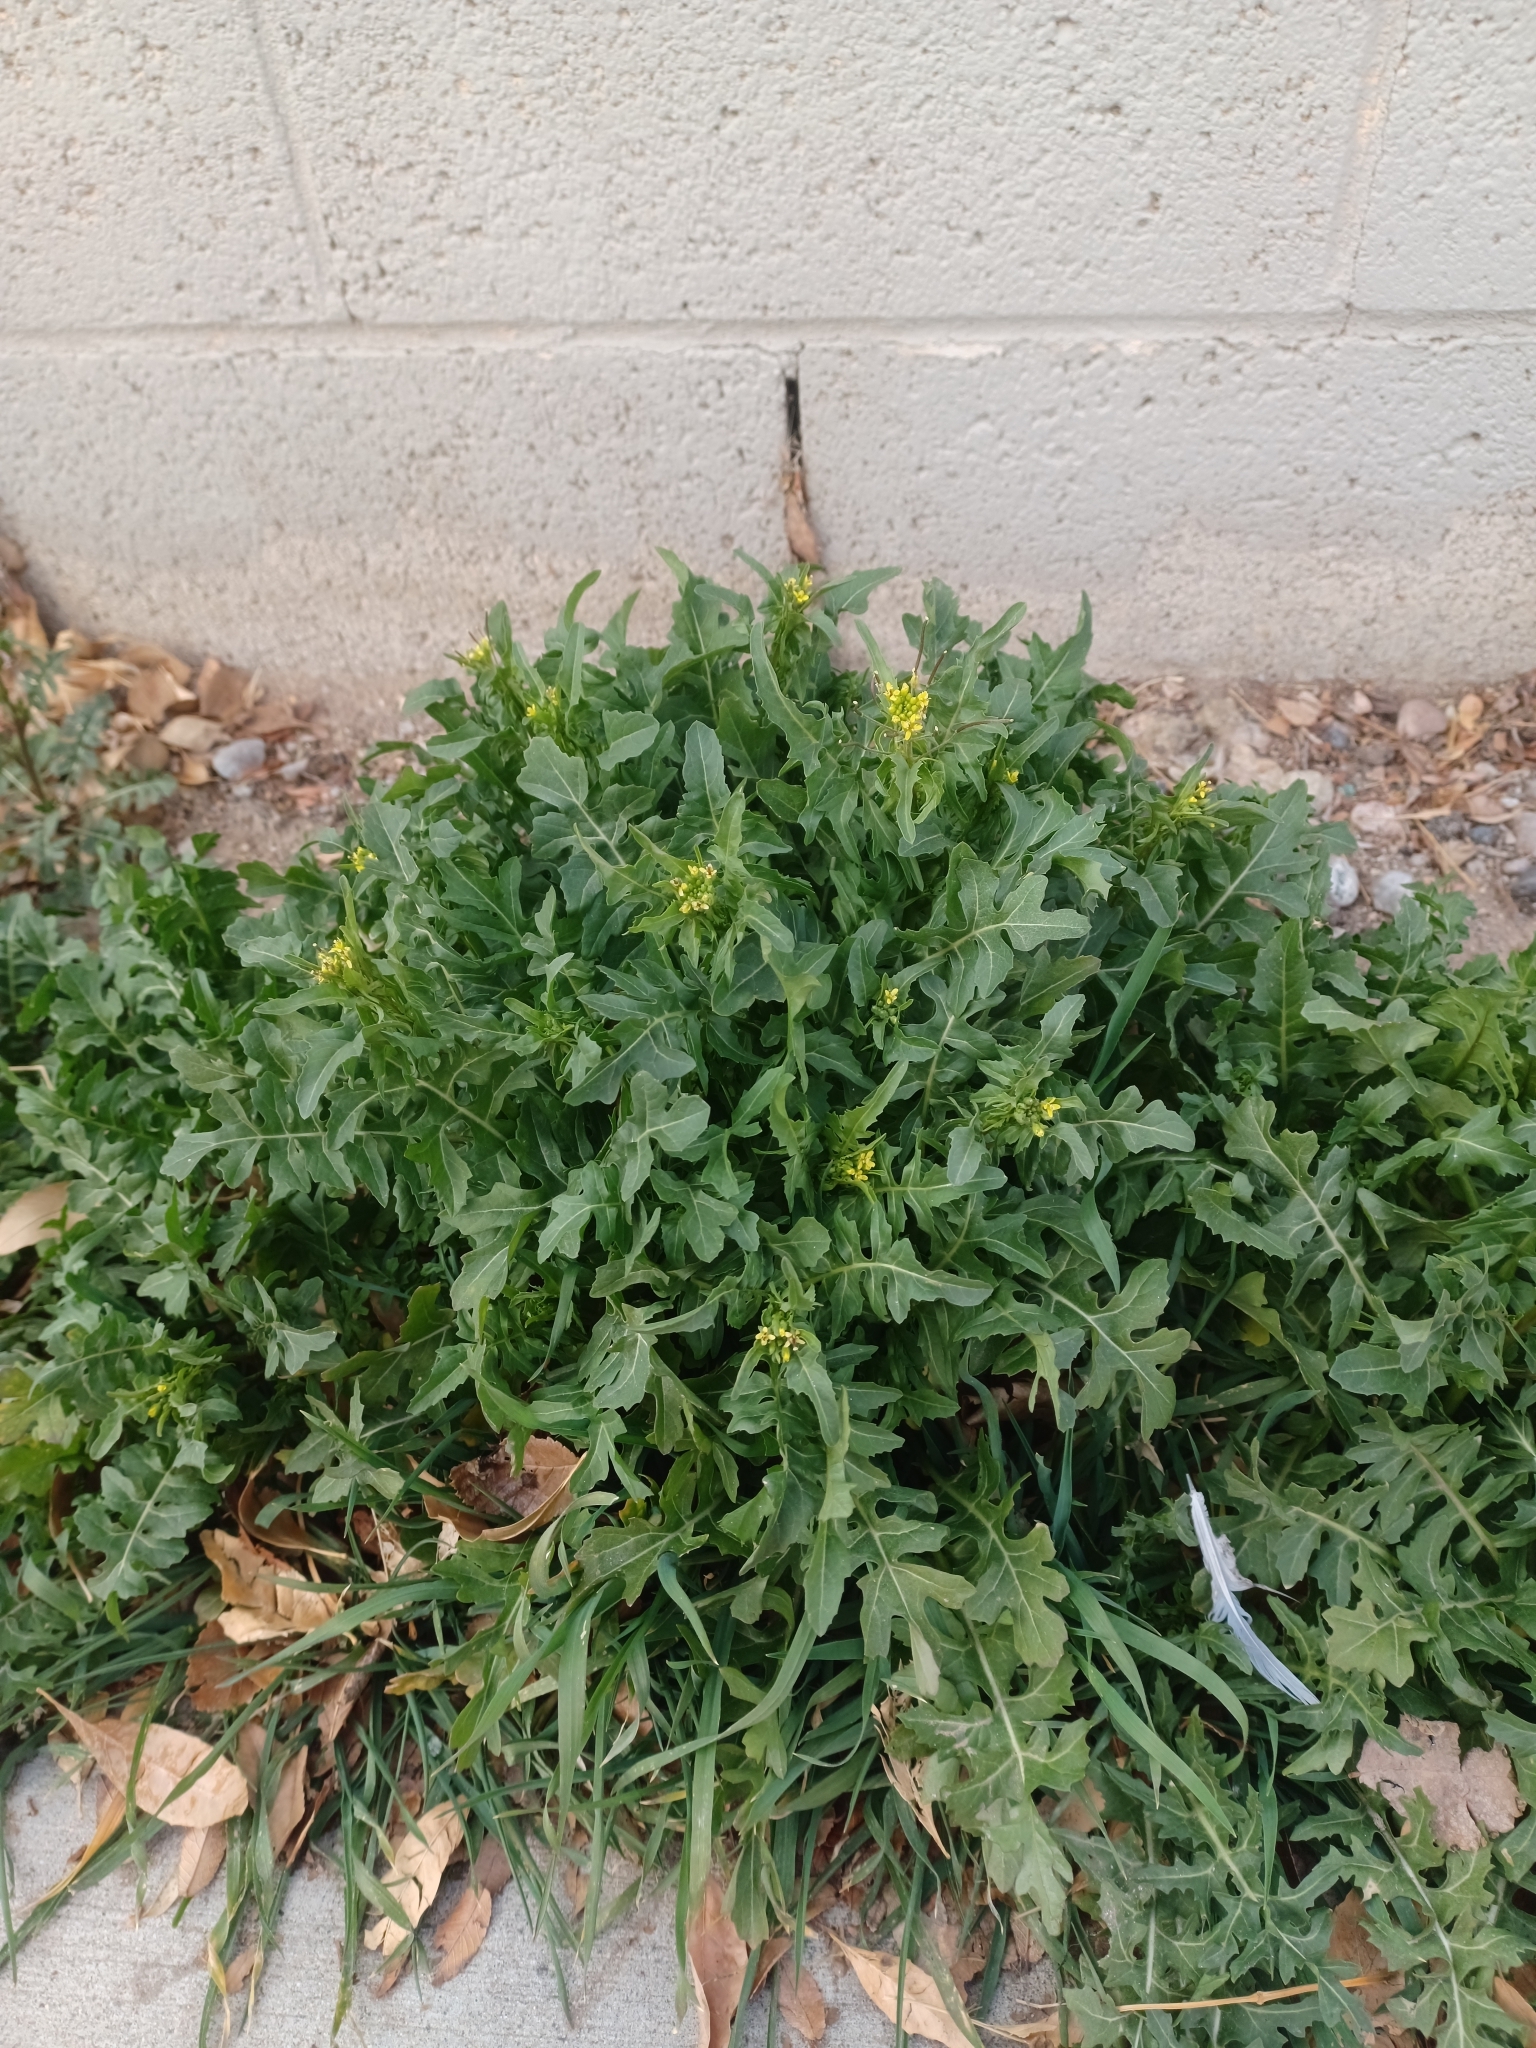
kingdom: Plantae
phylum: Tracheophyta
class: Magnoliopsida
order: Brassicales
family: Brassicaceae
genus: Sisymbrium
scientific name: Sisymbrium irio
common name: London rocket
